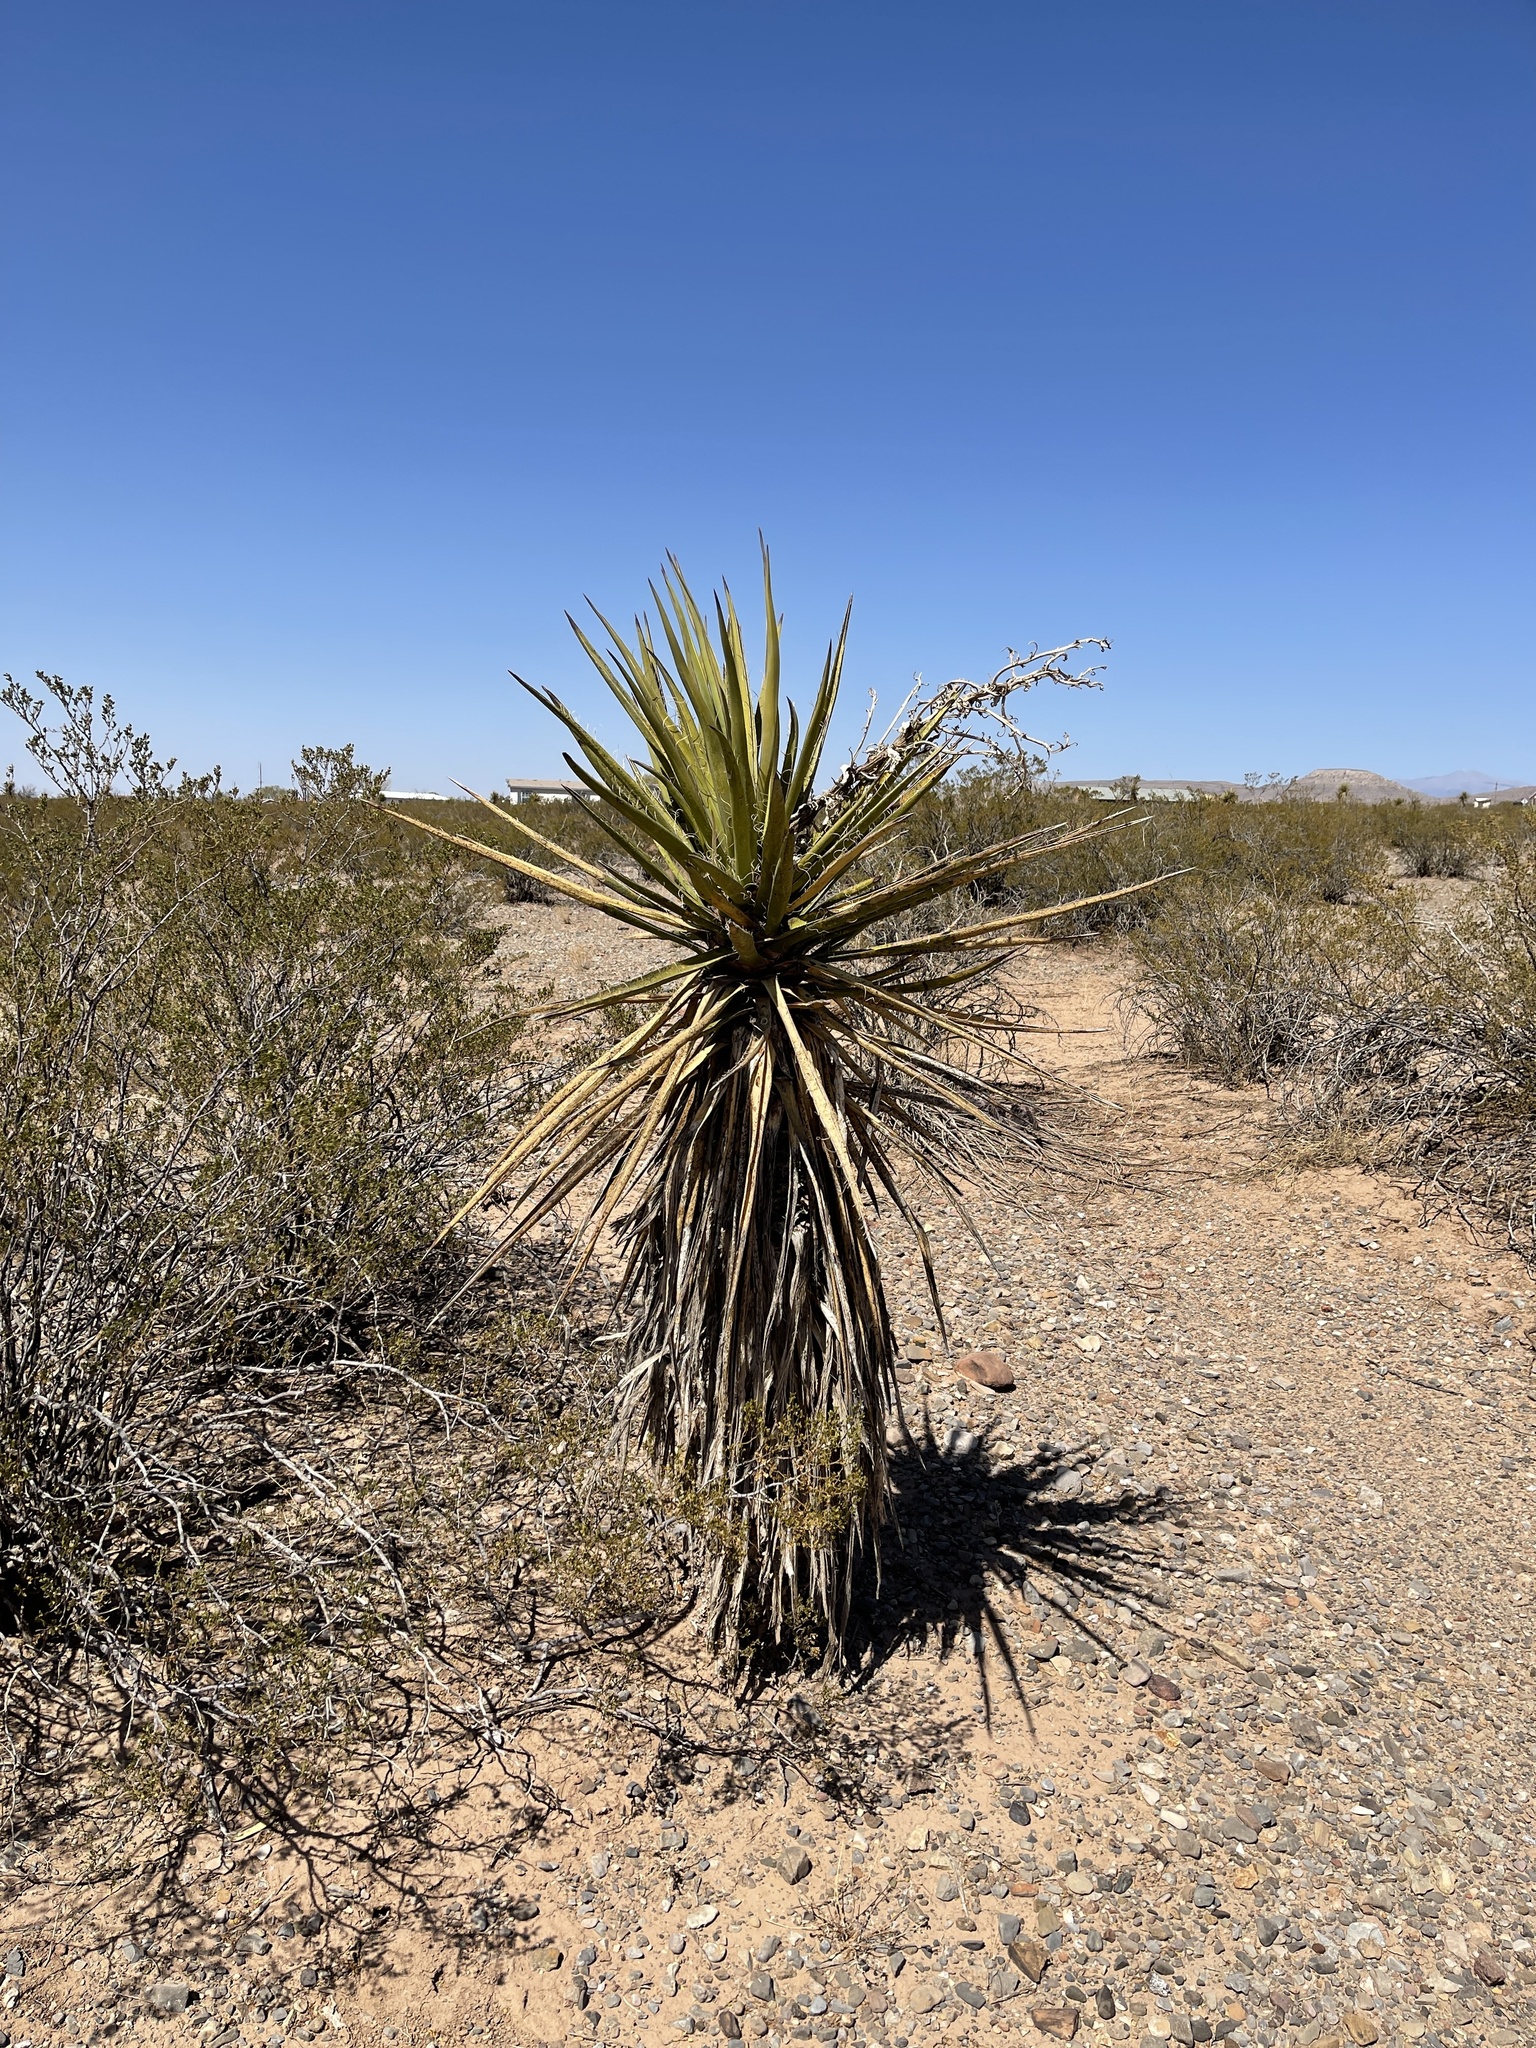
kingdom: Plantae
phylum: Tracheophyta
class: Liliopsida
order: Asparagales
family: Asparagaceae
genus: Yucca
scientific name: Yucca treculiana
